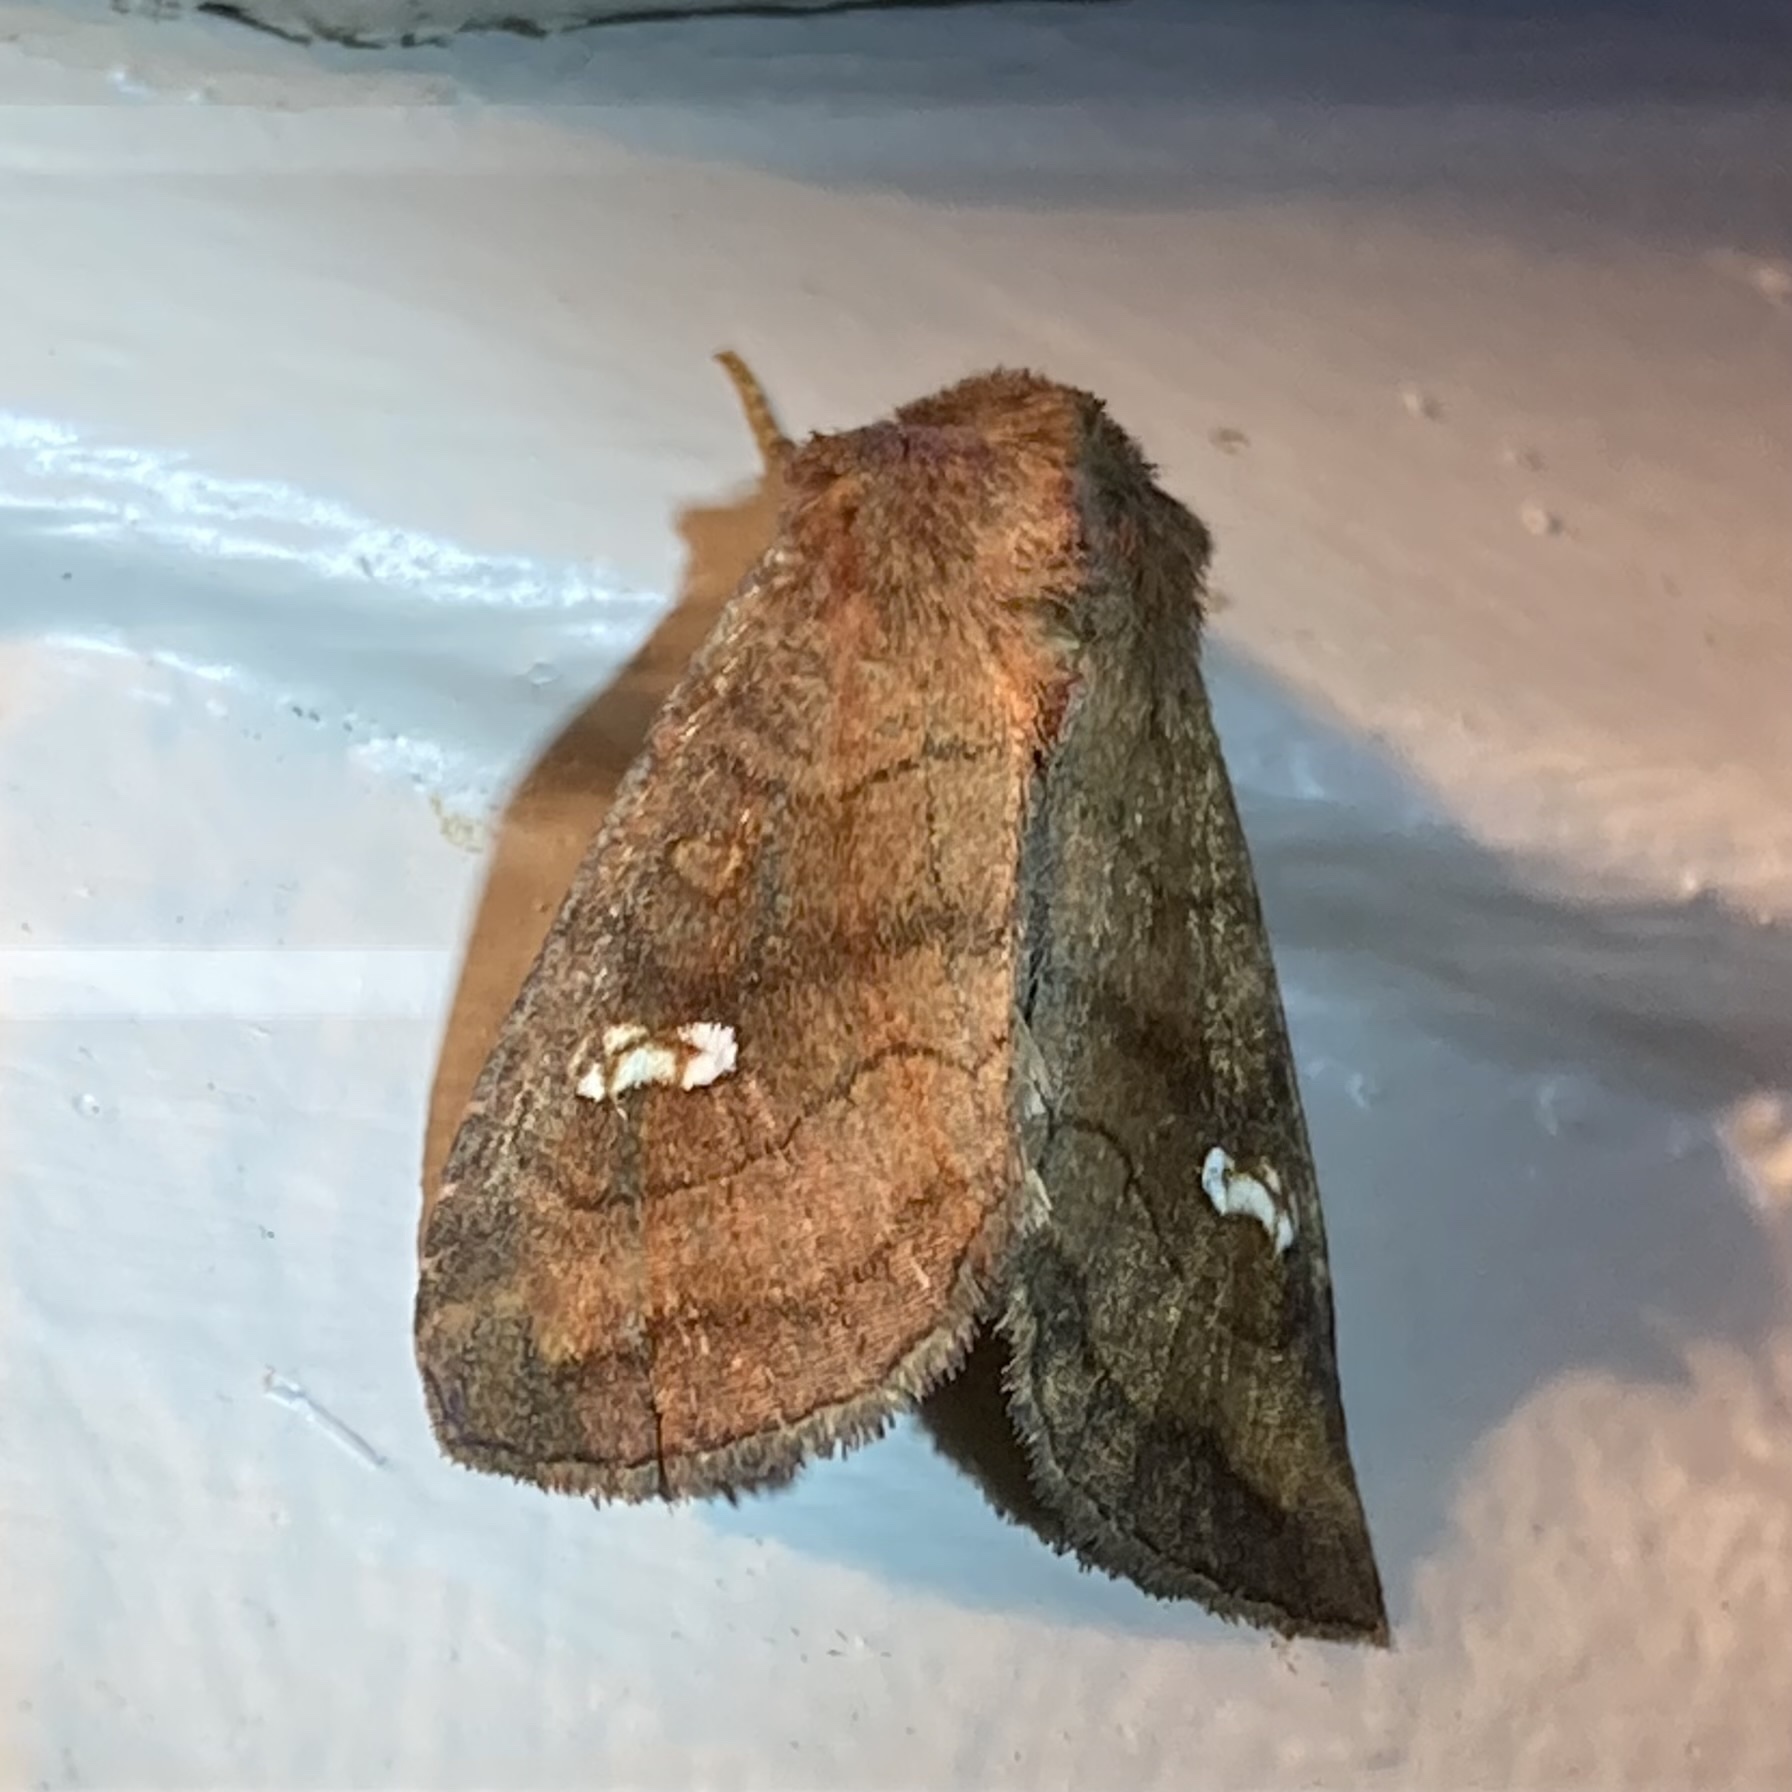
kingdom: Animalia
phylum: Arthropoda
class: Insecta
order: Lepidoptera
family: Noctuidae
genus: Tricholita
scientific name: Tricholita signata
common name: Signate quaker
